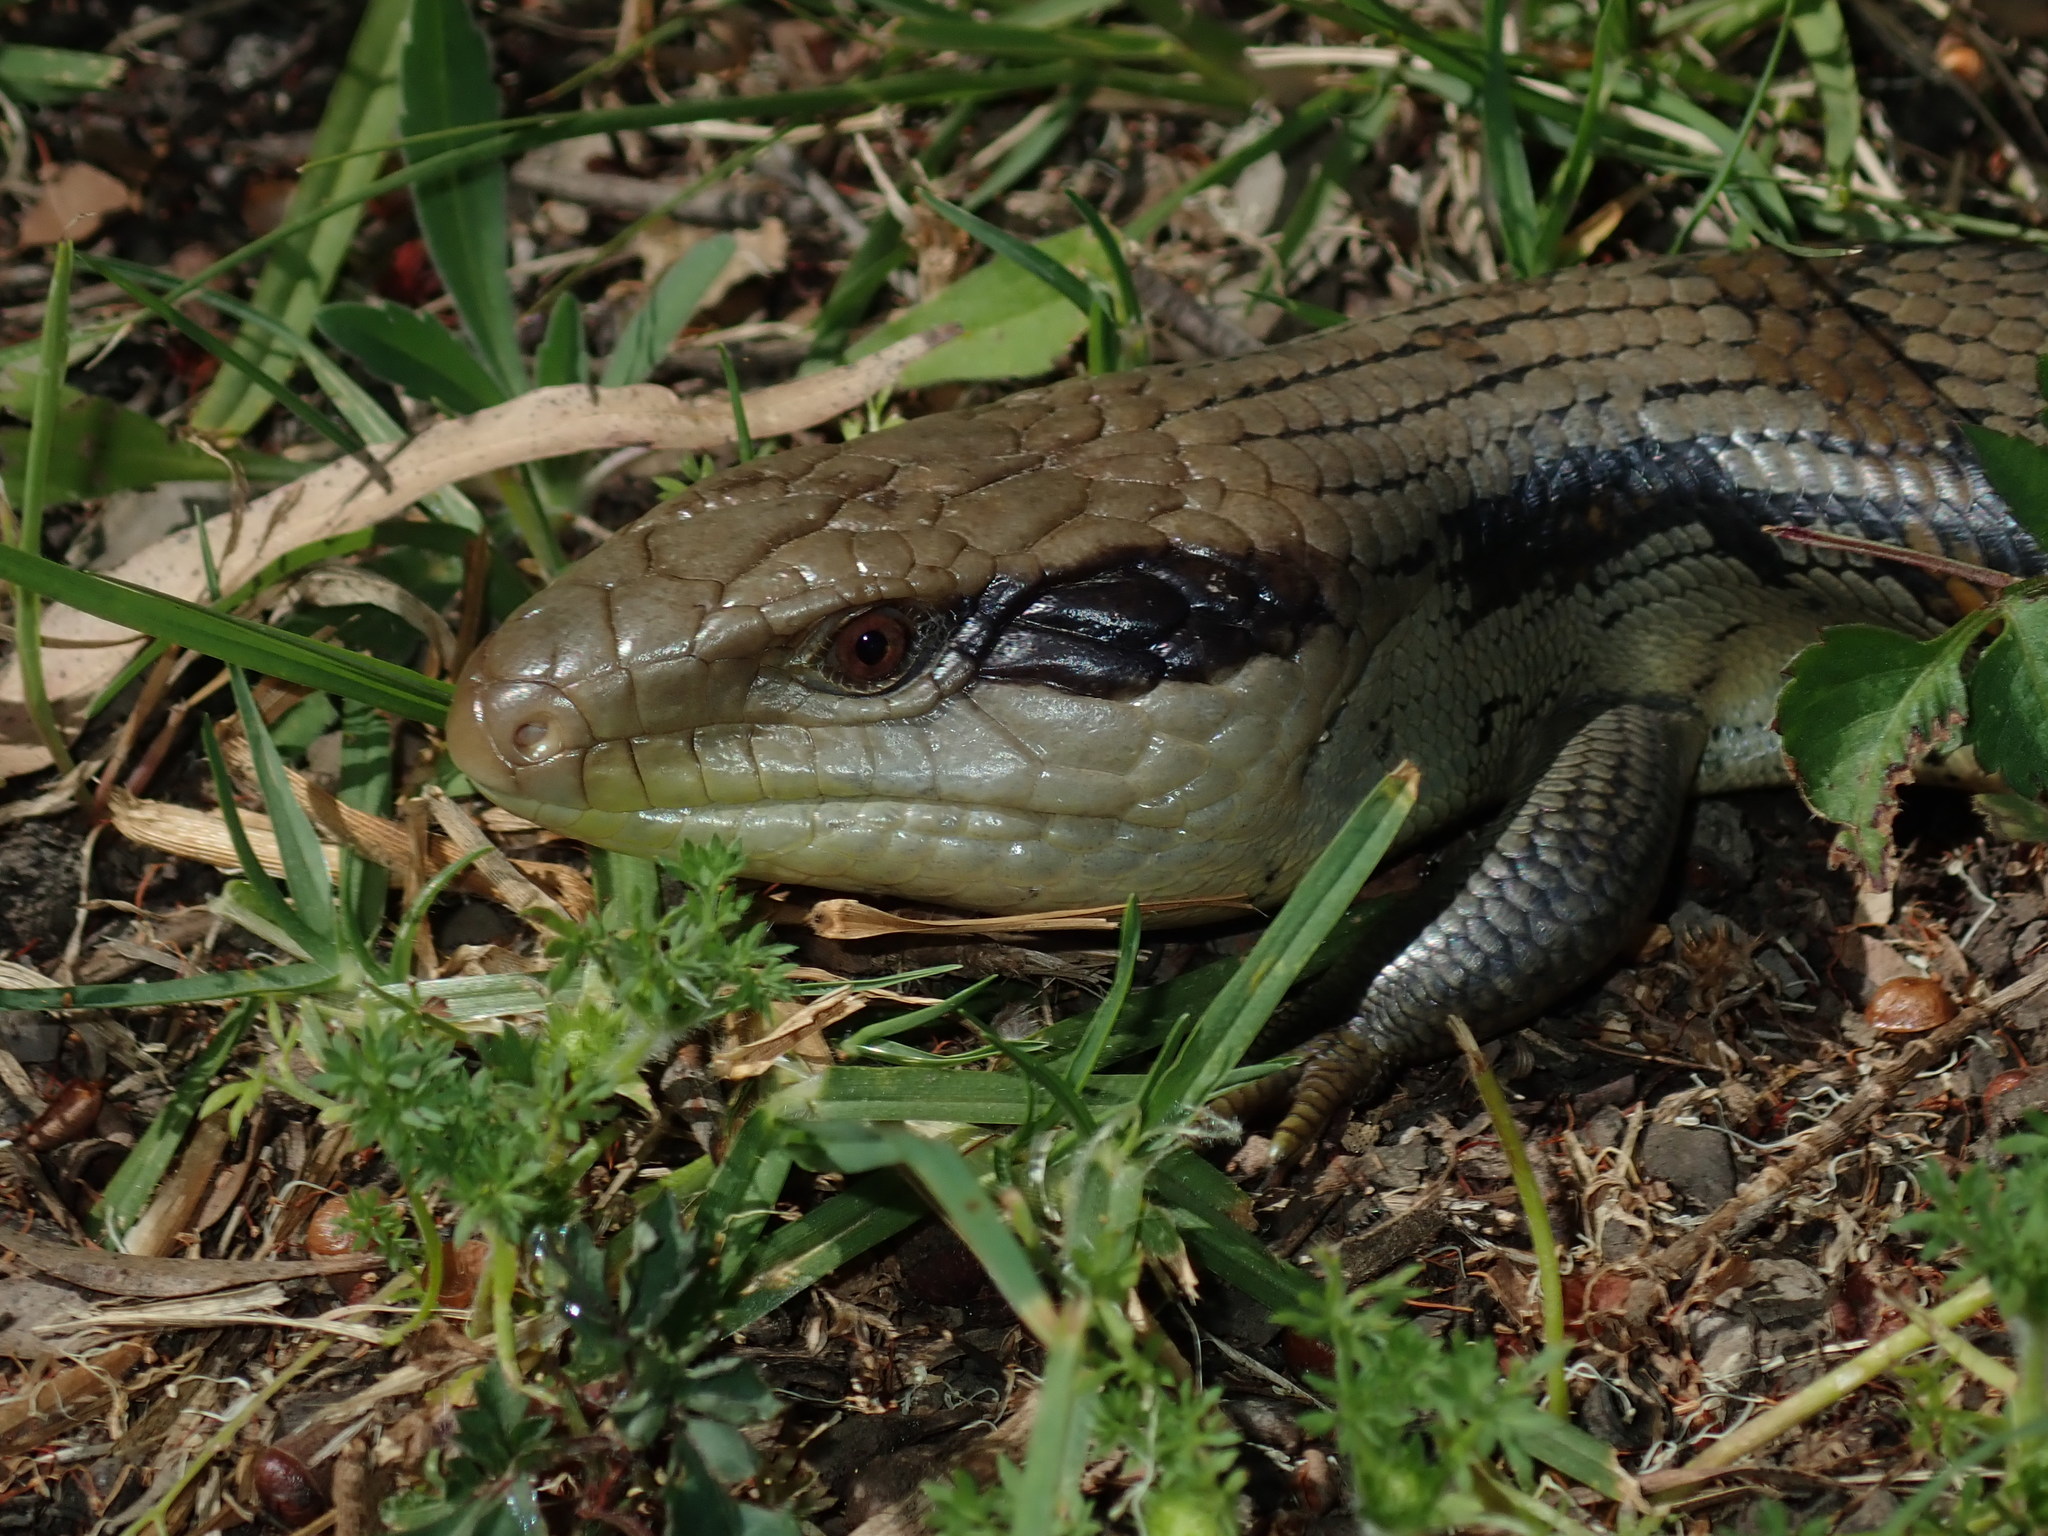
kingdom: Animalia
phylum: Chordata
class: Squamata
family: Scincidae
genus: Tiliqua
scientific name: Tiliqua scincoides
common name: Common bluetongue
